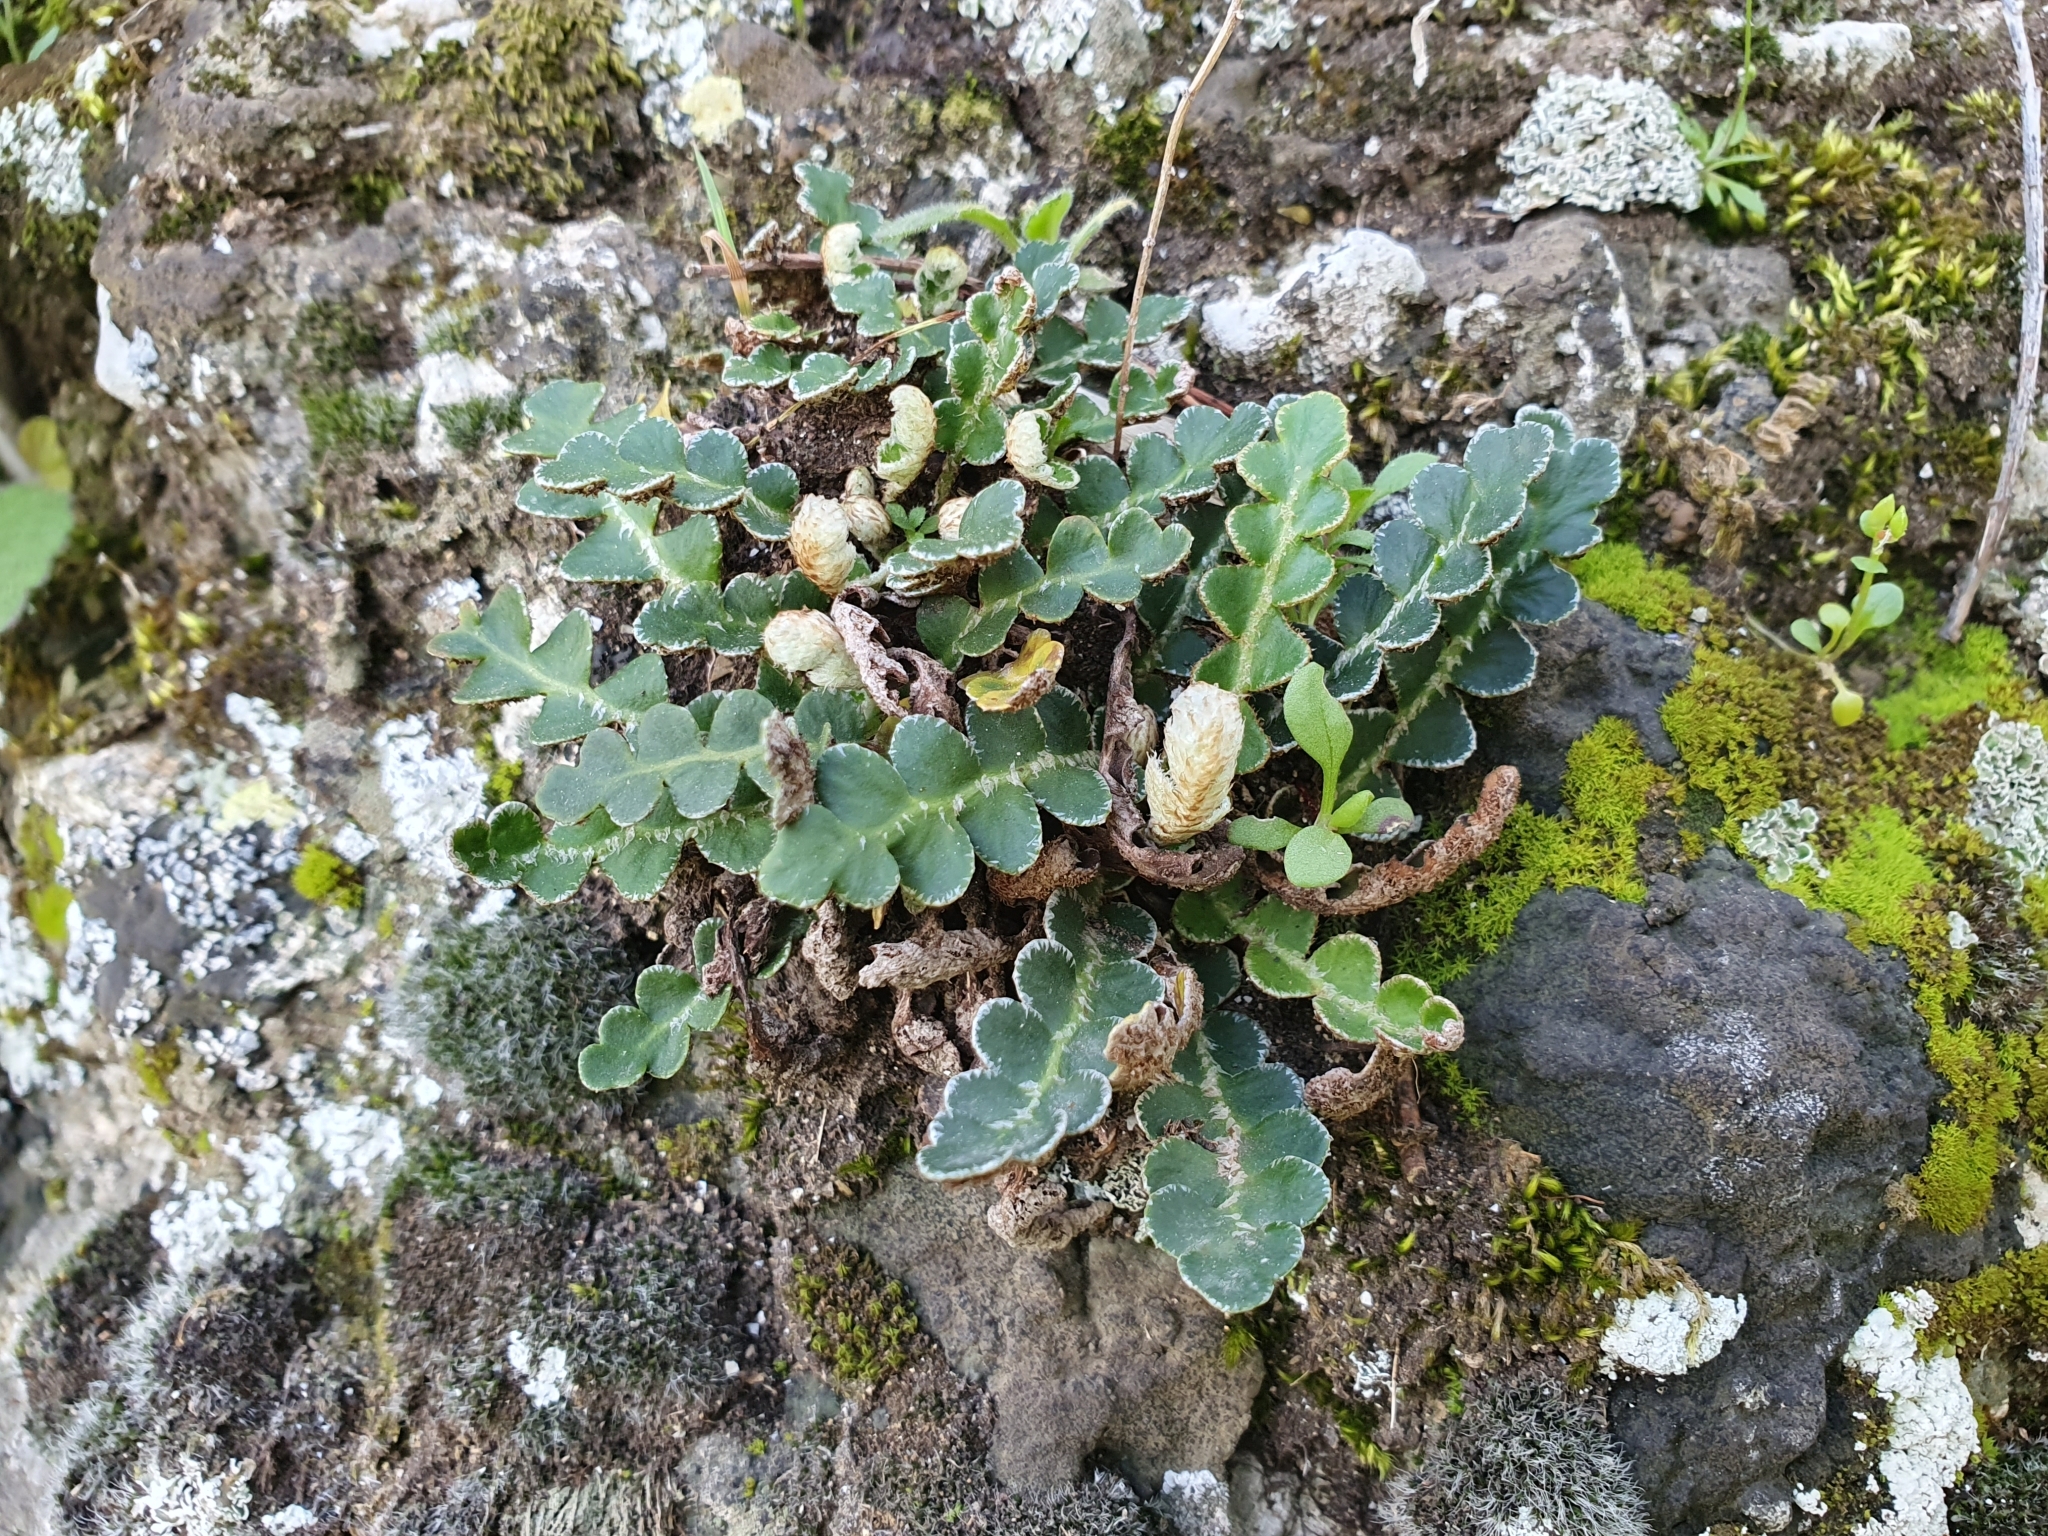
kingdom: Plantae
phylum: Tracheophyta
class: Polypodiopsida
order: Polypodiales
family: Aspleniaceae
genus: Asplenium
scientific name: Asplenium ceterach
